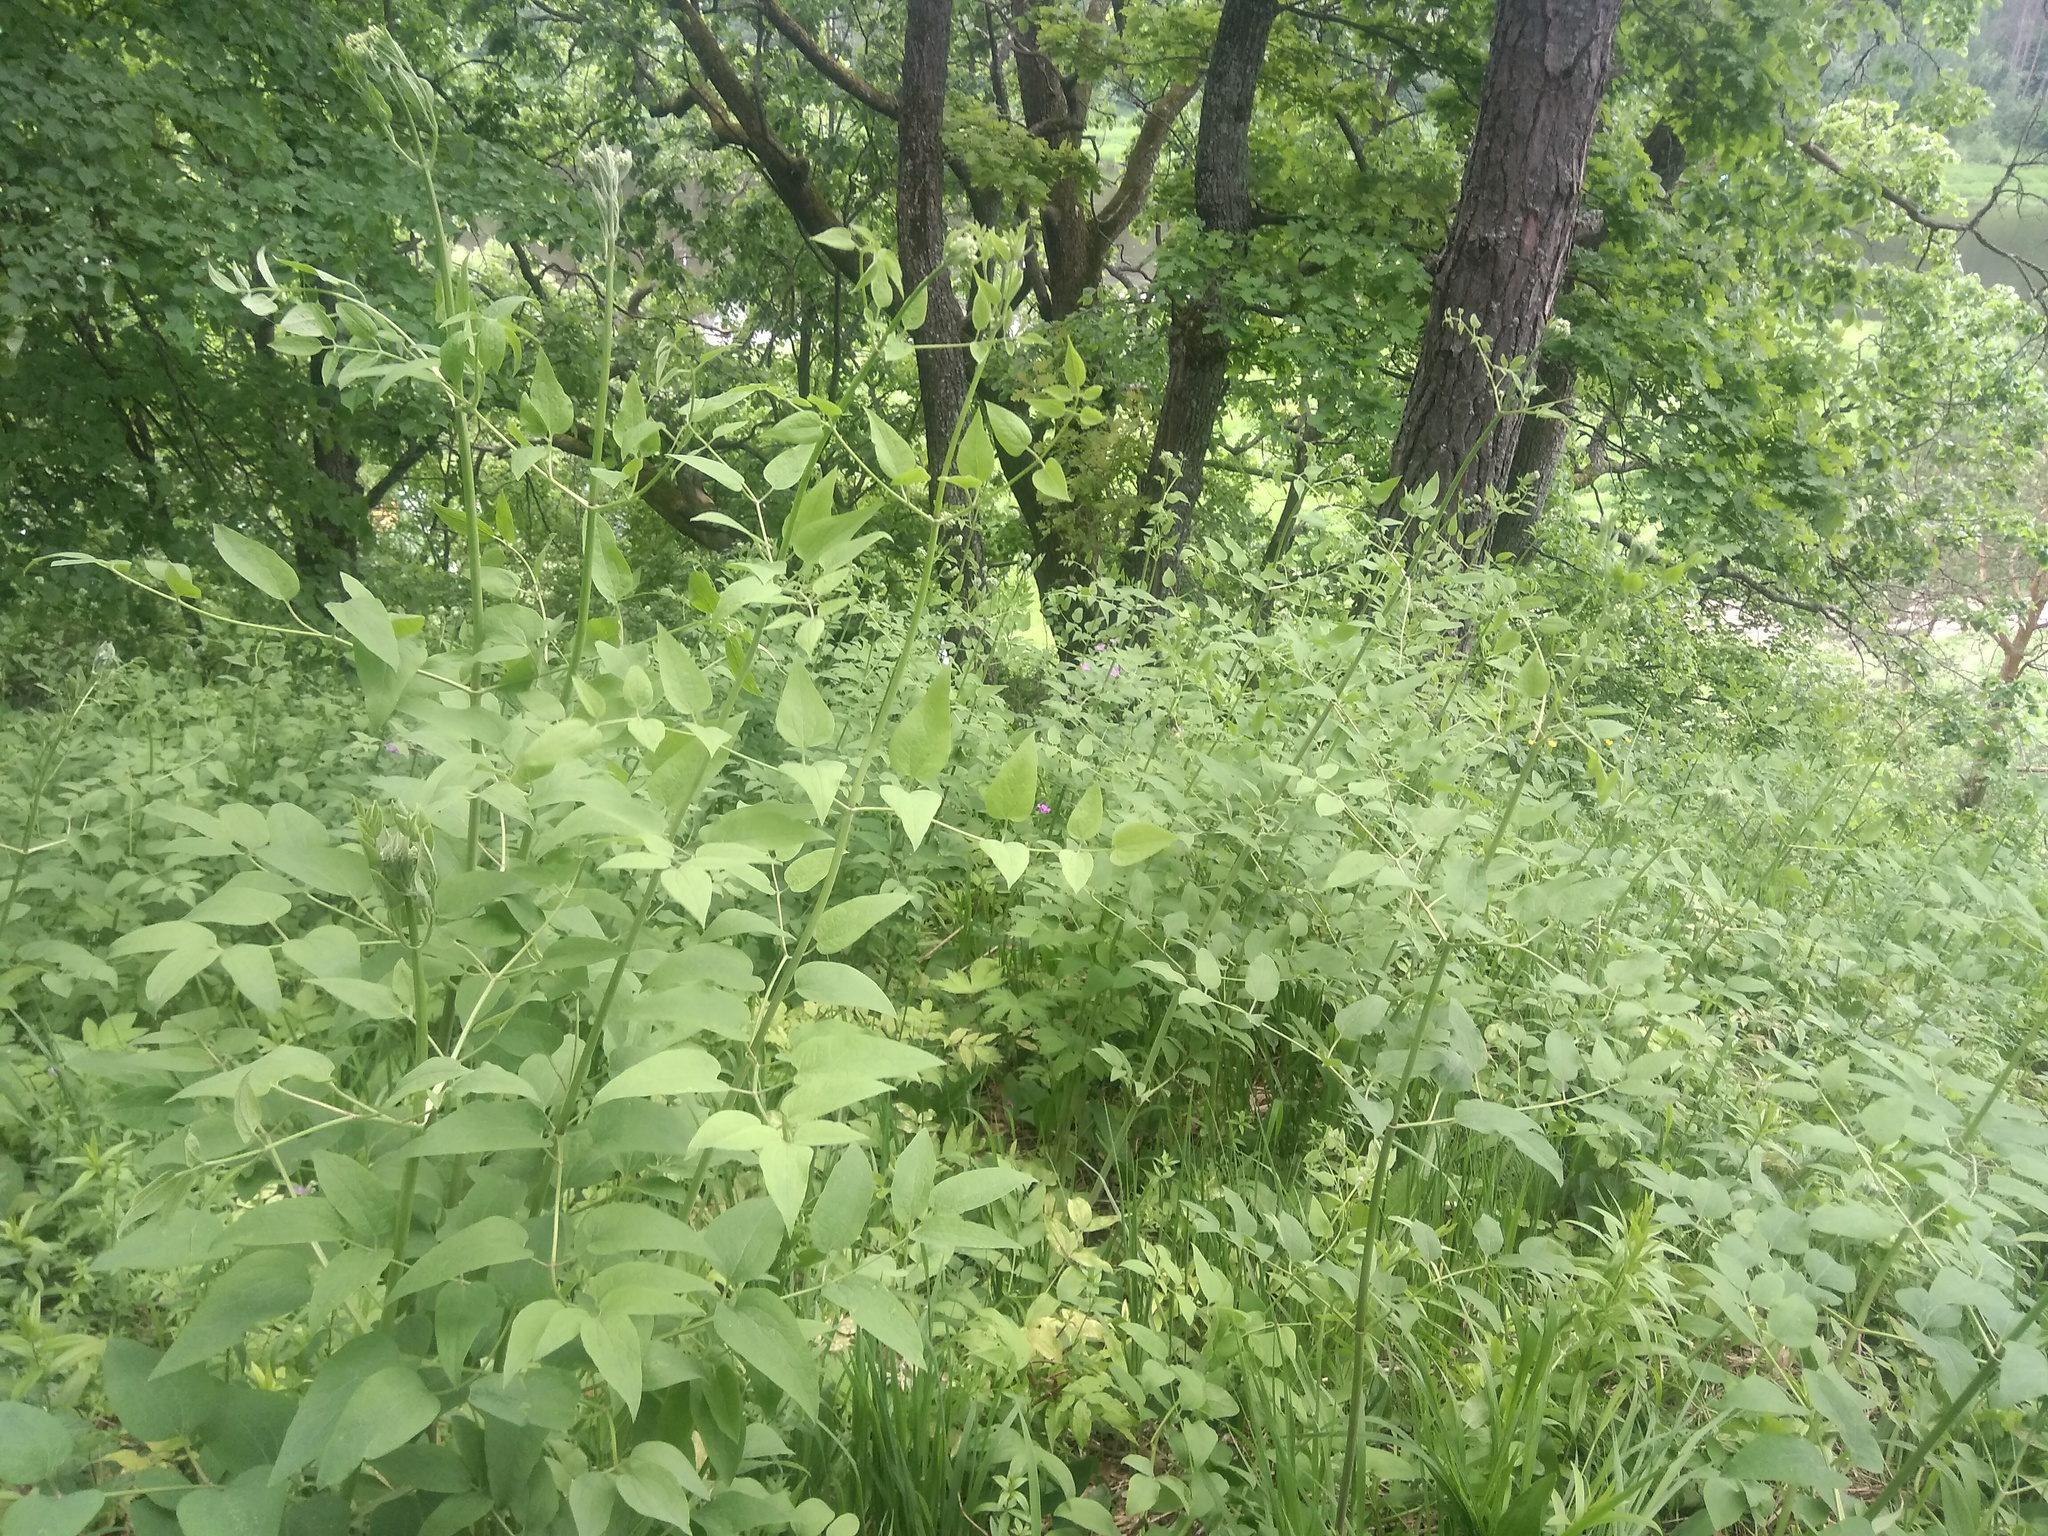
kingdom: Plantae
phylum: Tracheophyta
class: Magnoliopsida
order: Ranunculales
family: Ranunculaceae
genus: Clematis
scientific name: Clematis recta
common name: Ground clematis
